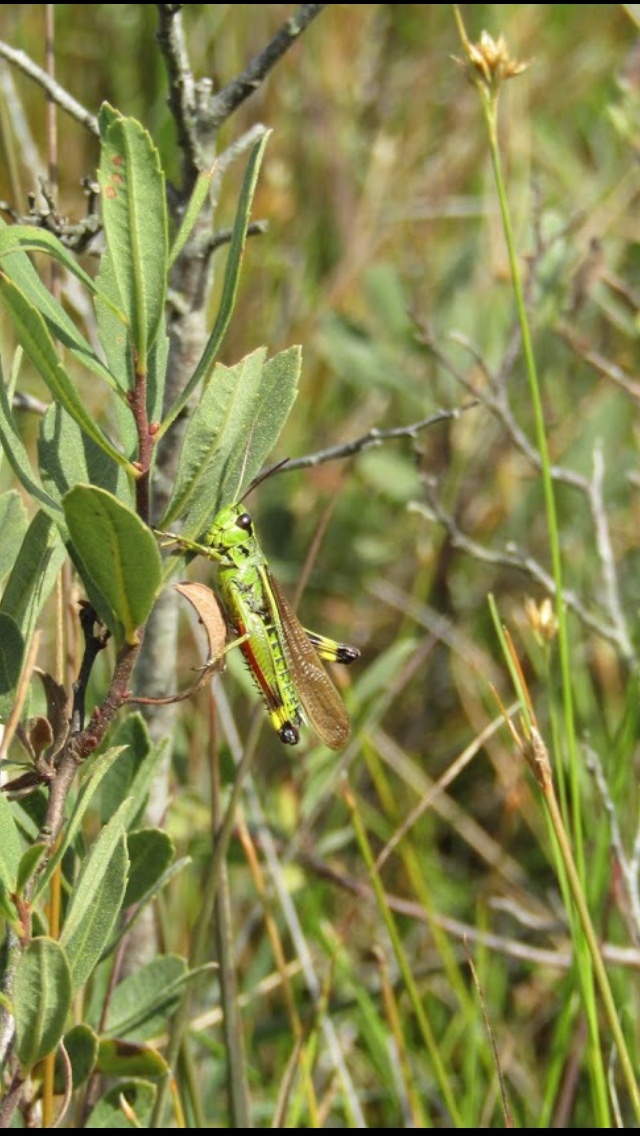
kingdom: Animalia
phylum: Arthropoda
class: Insecta
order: Orthoptera
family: Acrididae
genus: Stethophyma
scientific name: Stethophyma grossum
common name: Large marsh grasshopper
